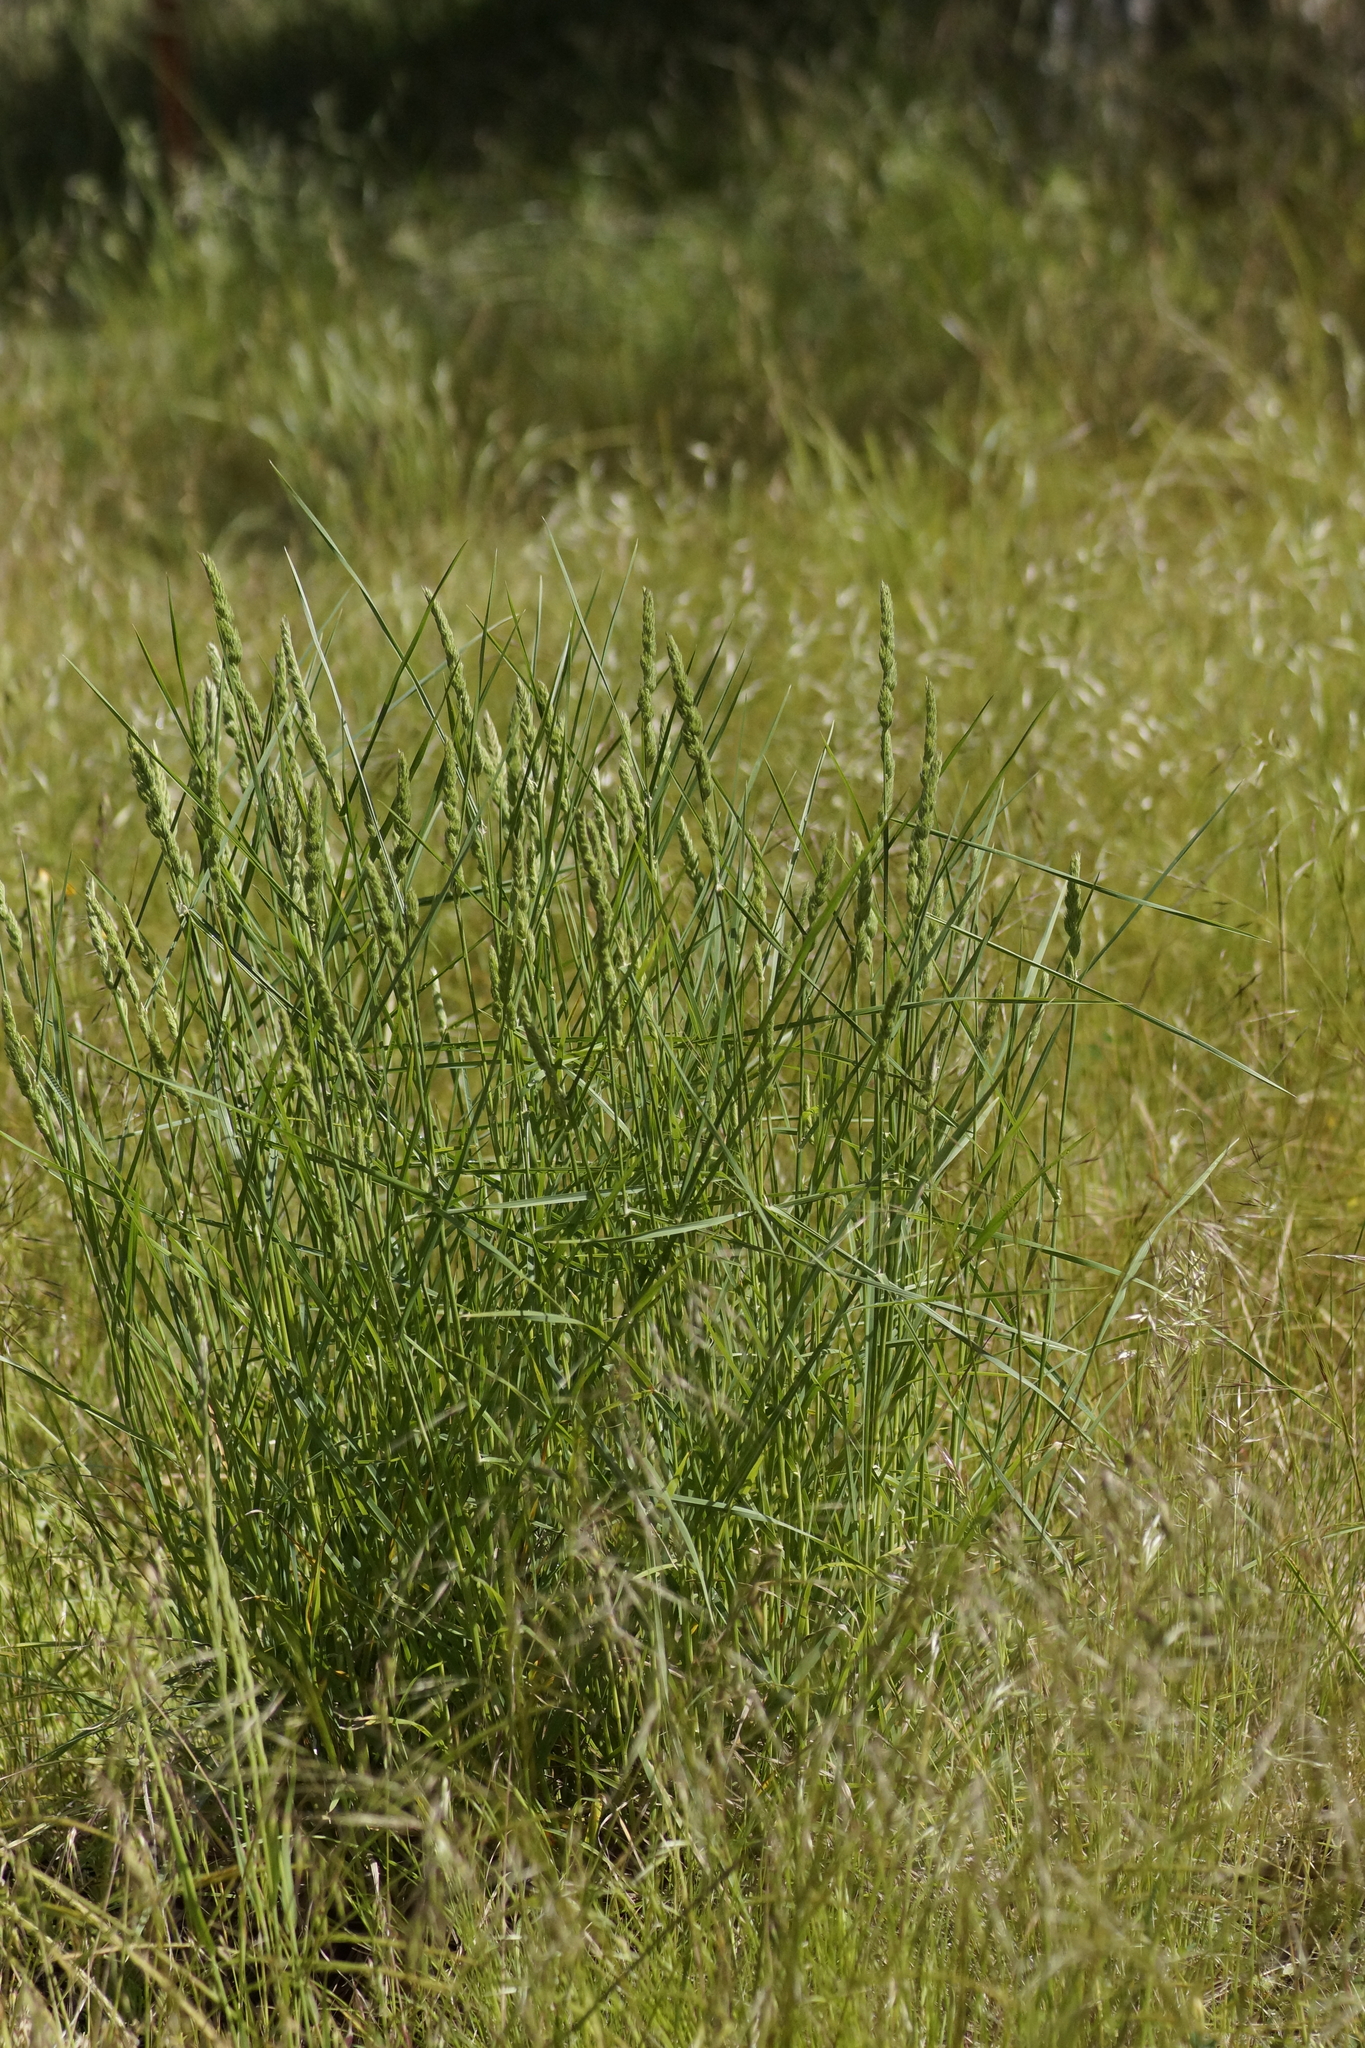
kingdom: Plantae
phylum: Tracheophyta
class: Liliopsida
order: Poales
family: Poaceae
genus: Dactylis
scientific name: Dactylis glomerata
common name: Orchardgrass
